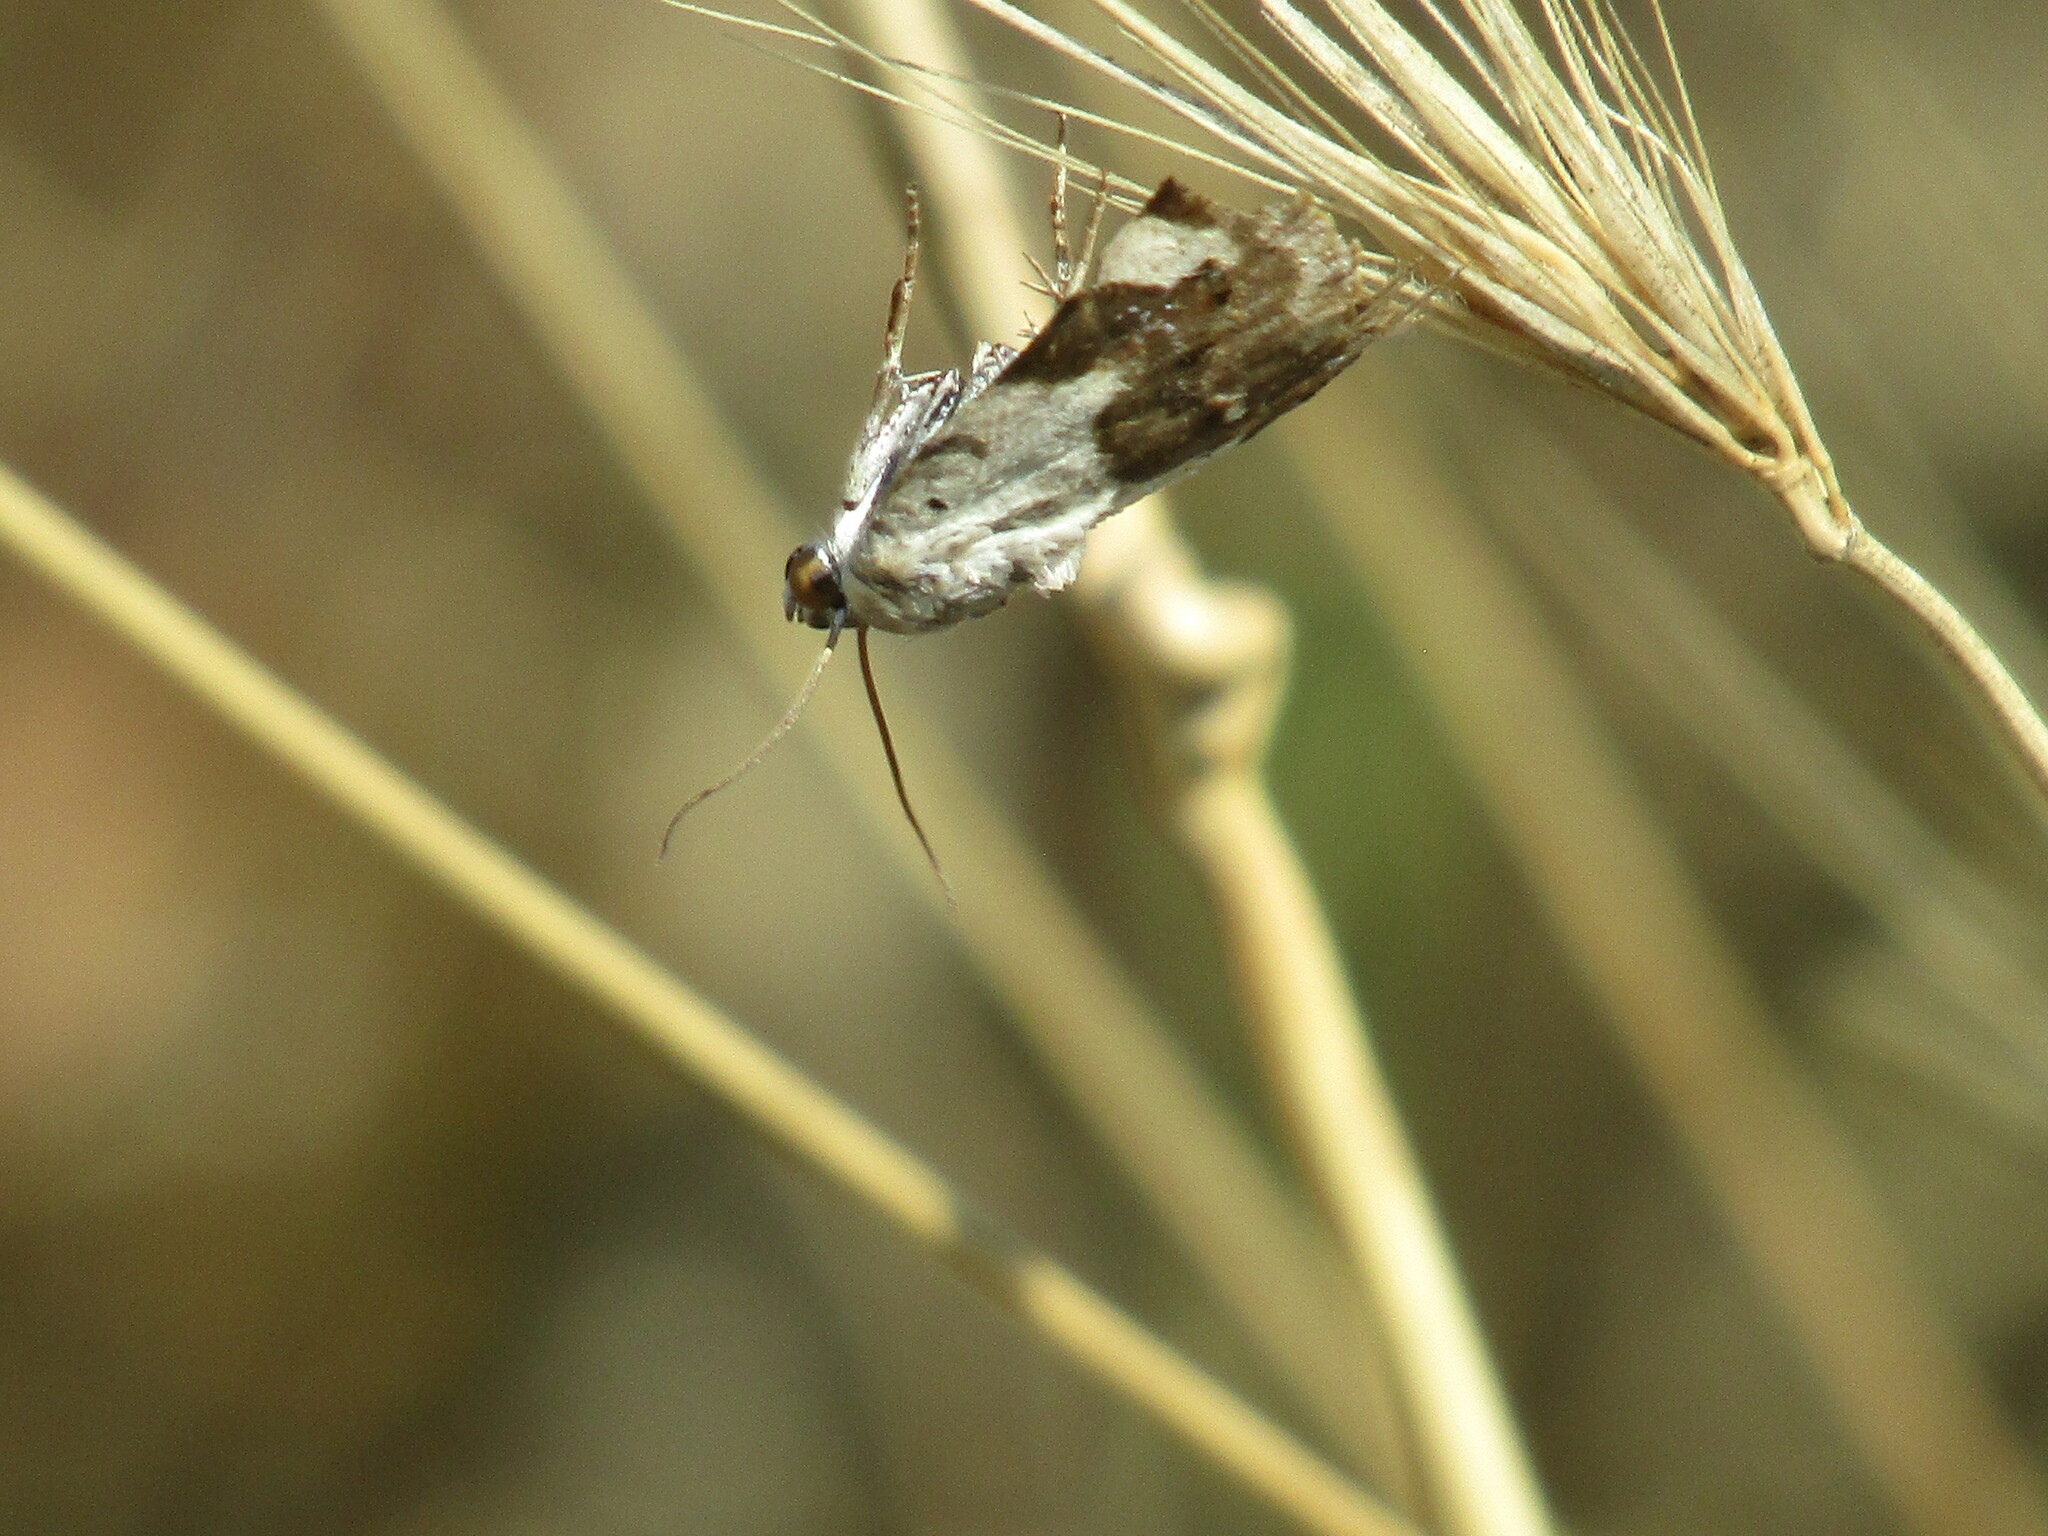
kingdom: Animalia
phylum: Arthropoda
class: Insecta
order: Lepidoptera
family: Noctuidae
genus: Acontia
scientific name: Acontia lucida
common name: Pale shoulder
